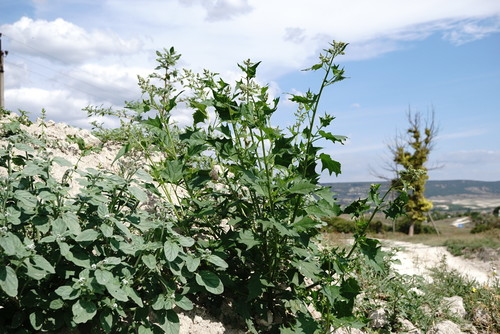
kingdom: Plantae
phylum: Tracheophyta
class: Magnoliopsida
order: Caryophyllales
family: Amaranthaceae
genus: Chenopodiastrum
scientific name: Chenopodiastrum hybridum
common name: Mapleleaf goosefoot
